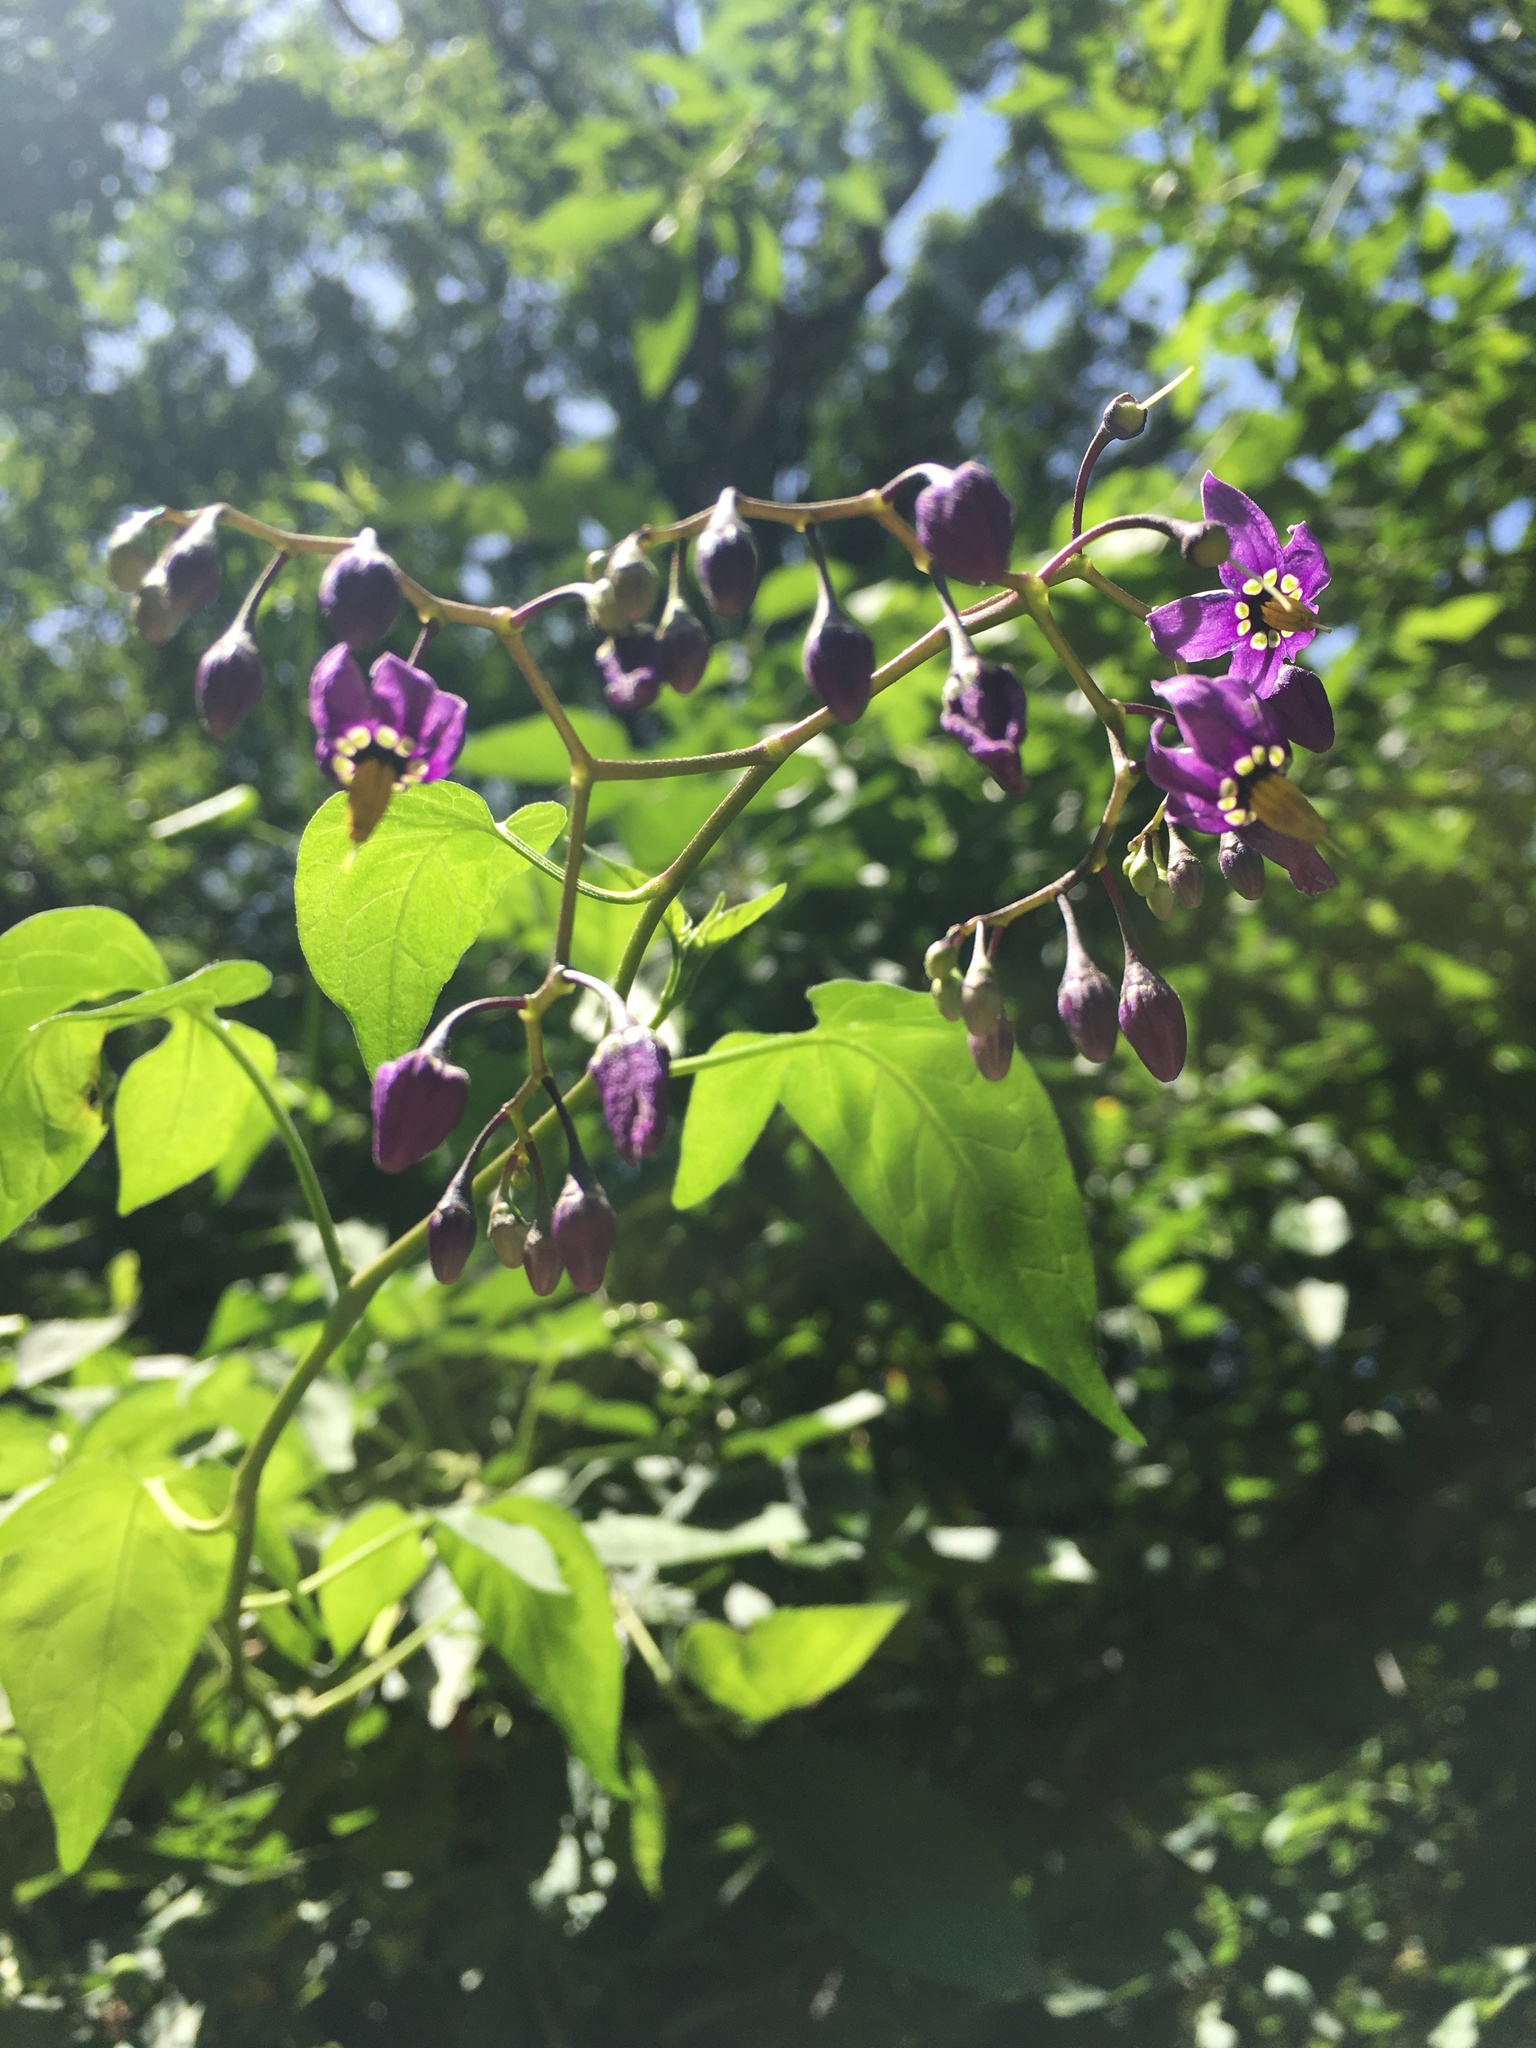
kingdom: Plantae
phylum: Tracheophyta
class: Magnoliopsida
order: Solanales
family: Solanaceae
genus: Solanum
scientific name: Solanum dulcamara
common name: Climbing nightshade
